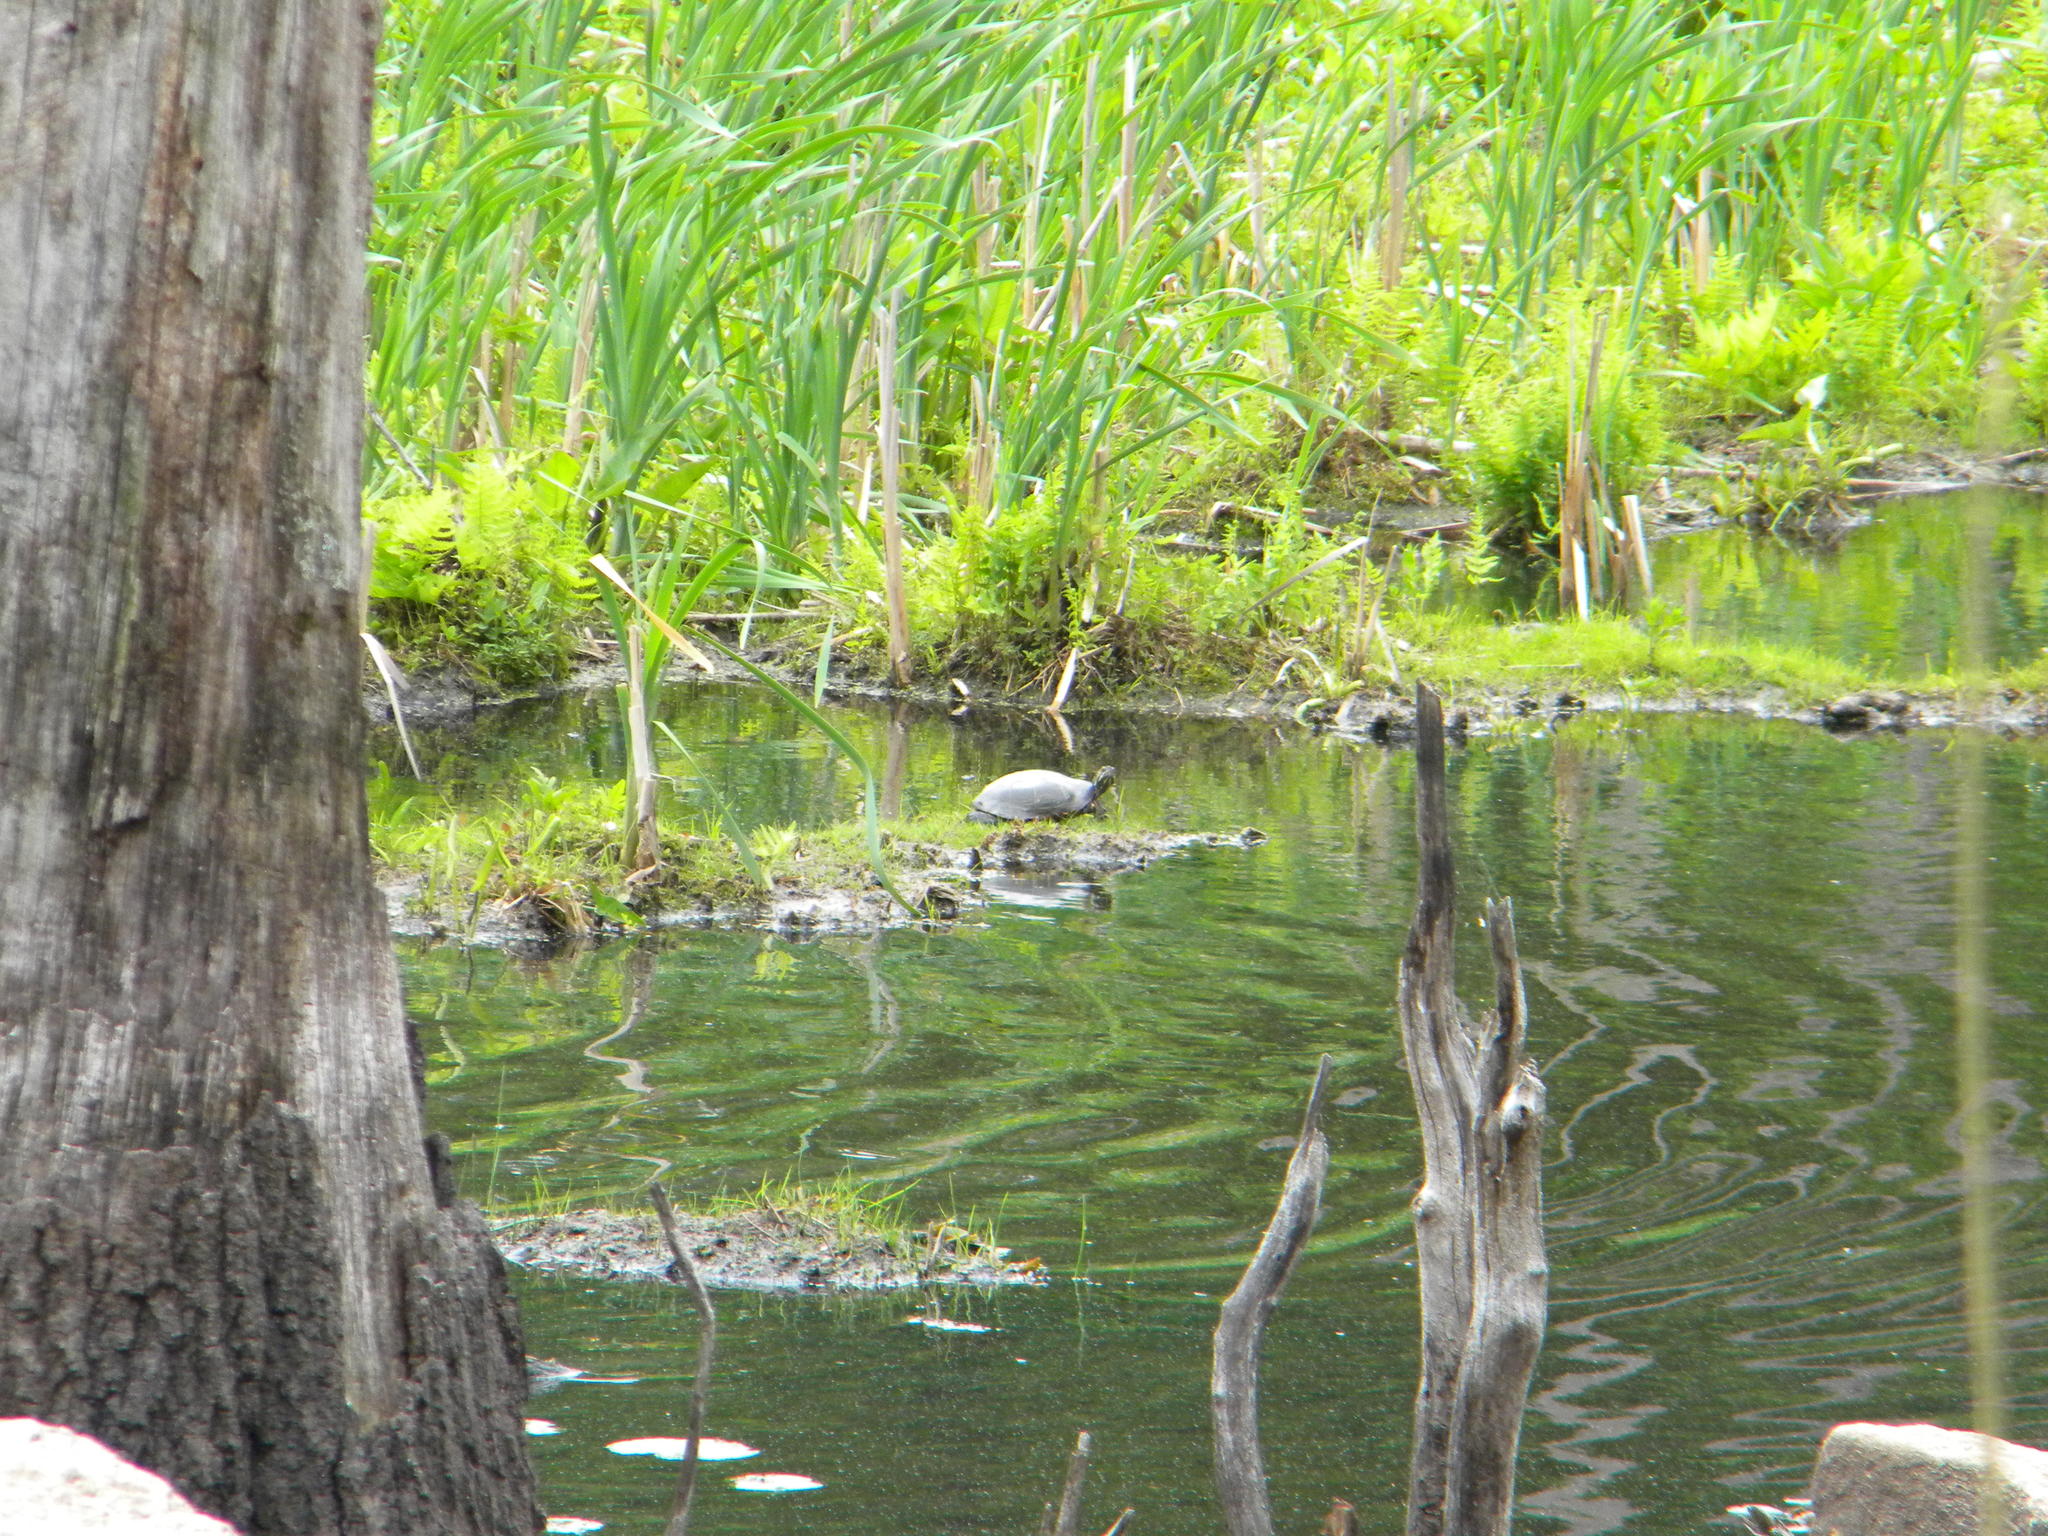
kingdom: Animalia
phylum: Chordata
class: Testudines
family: Emydidae
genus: Chrysemys
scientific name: Chrysemys picta
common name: Painted turtle
